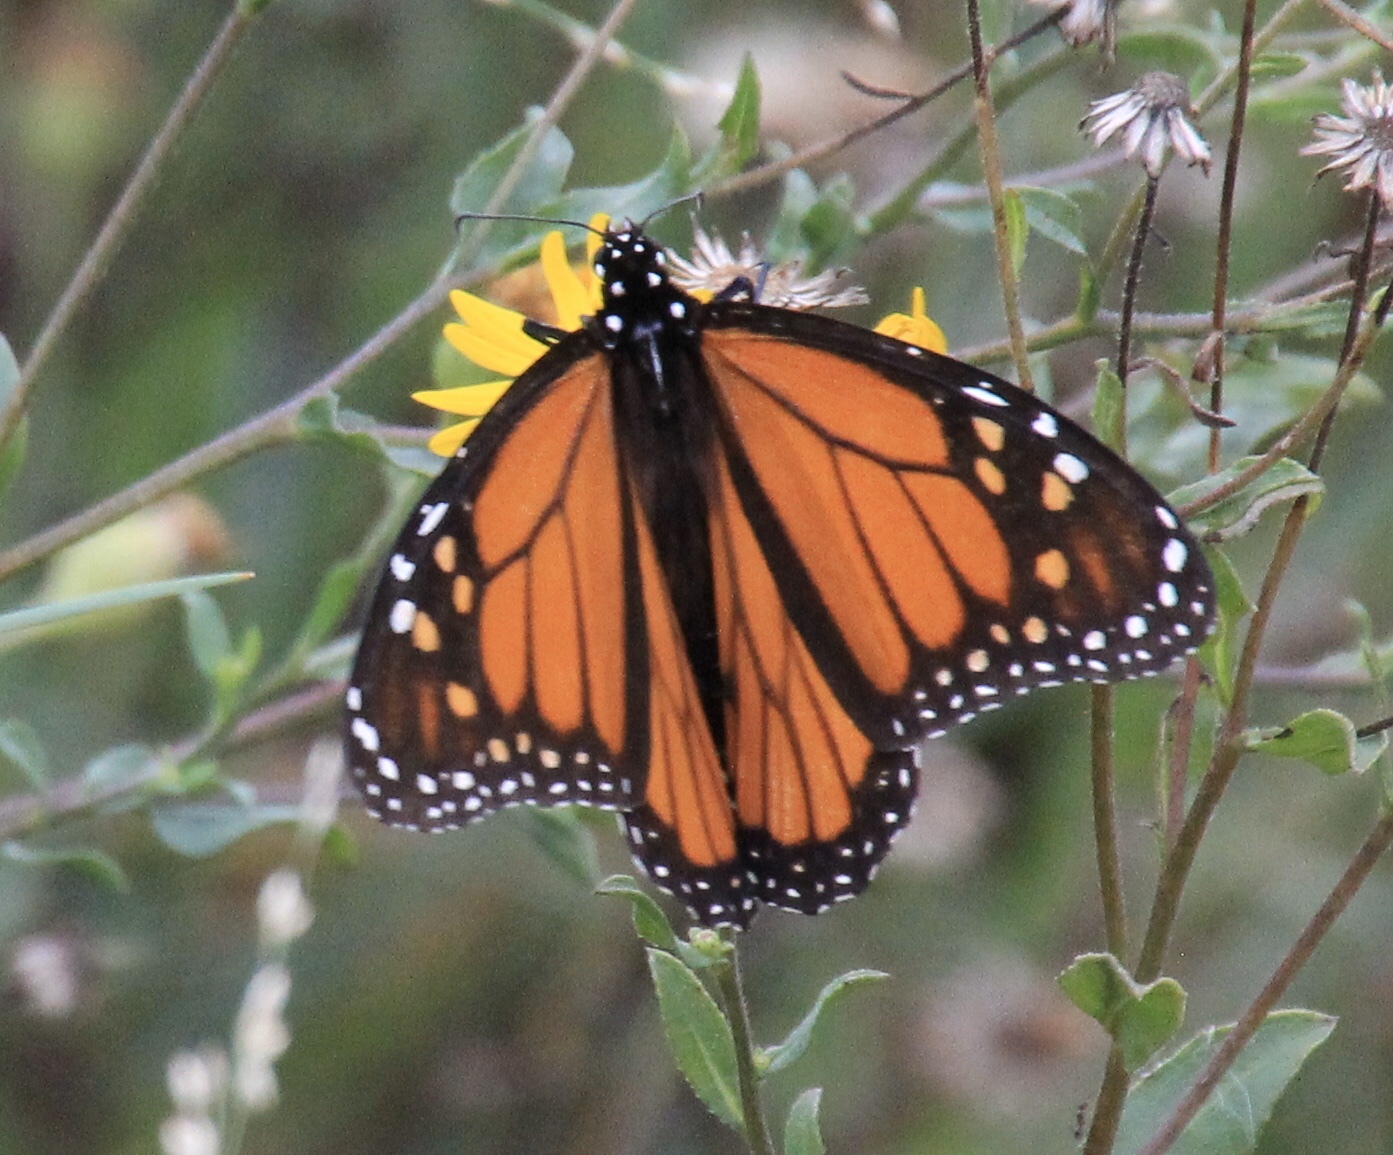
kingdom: Animalia
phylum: Arthropoda
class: Insecta
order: Lepidoptera
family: Nymphalidae
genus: Danaus
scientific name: Danaus plexippus
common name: Monarch
